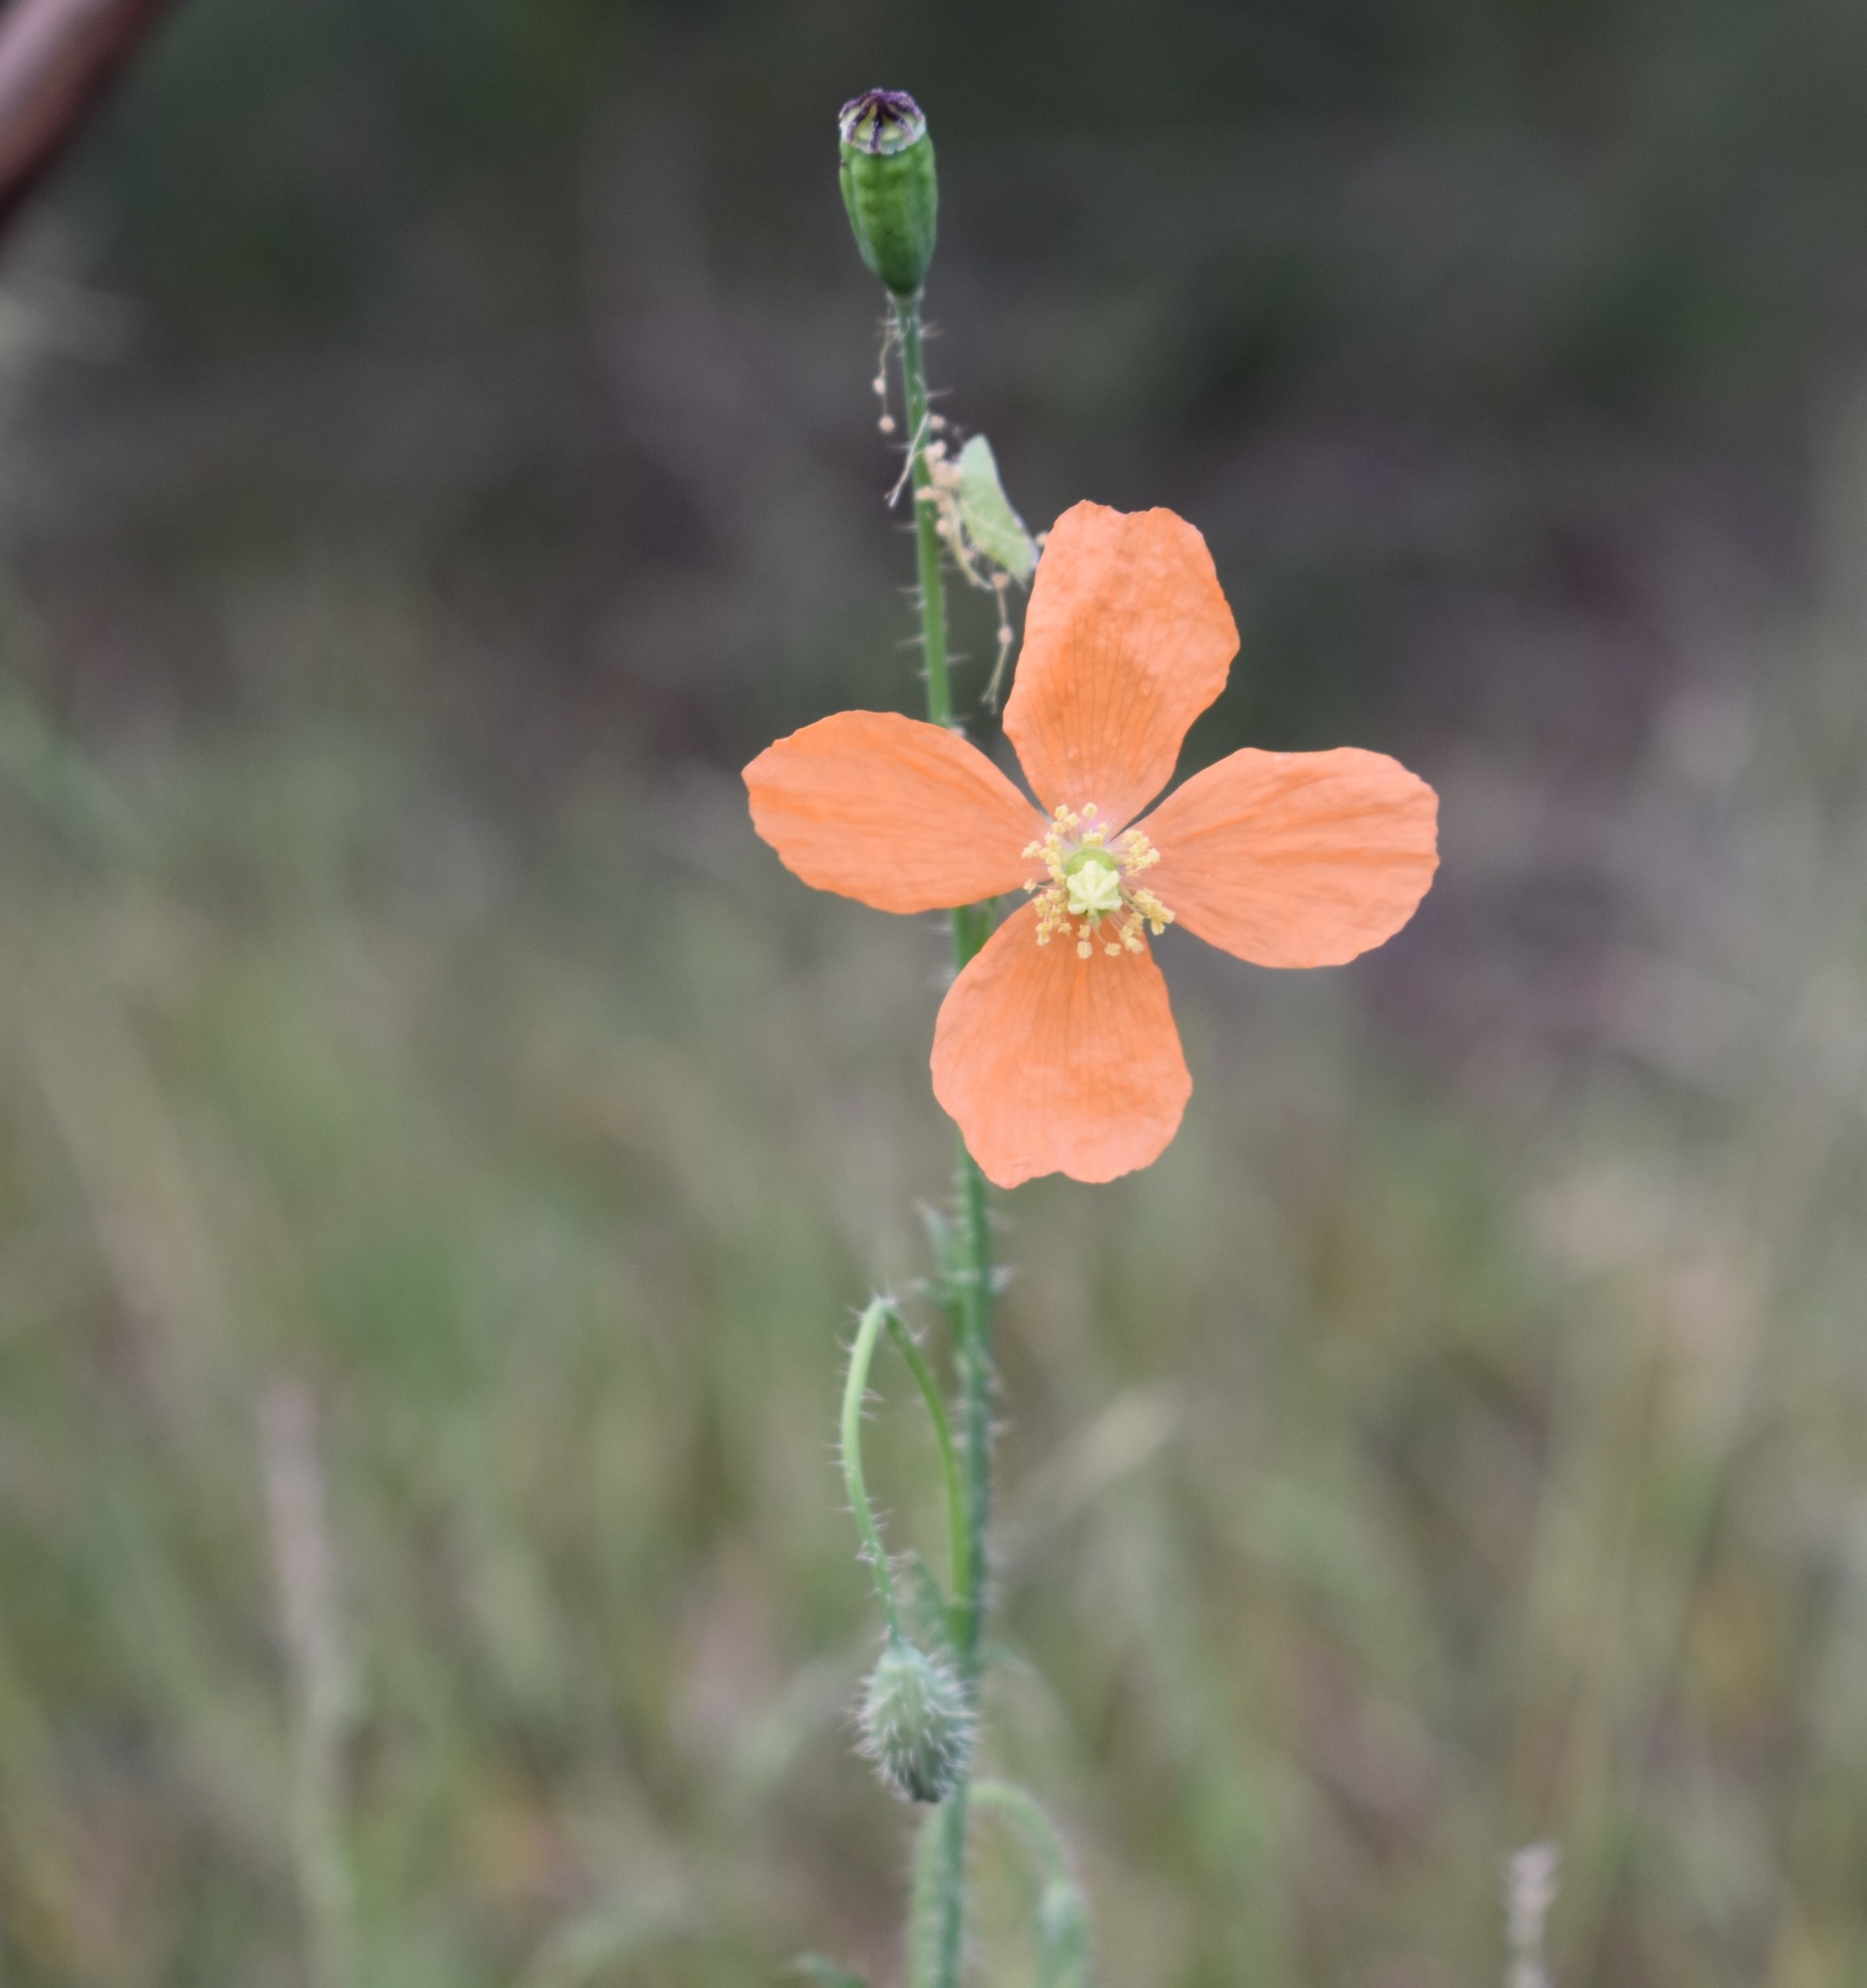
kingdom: Plantae
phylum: Tracheophyta
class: Magnoliopsida
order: Ranunculales
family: Papaveraceae
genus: Papaver
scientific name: Papaver aculeatum
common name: Bristle poppy
